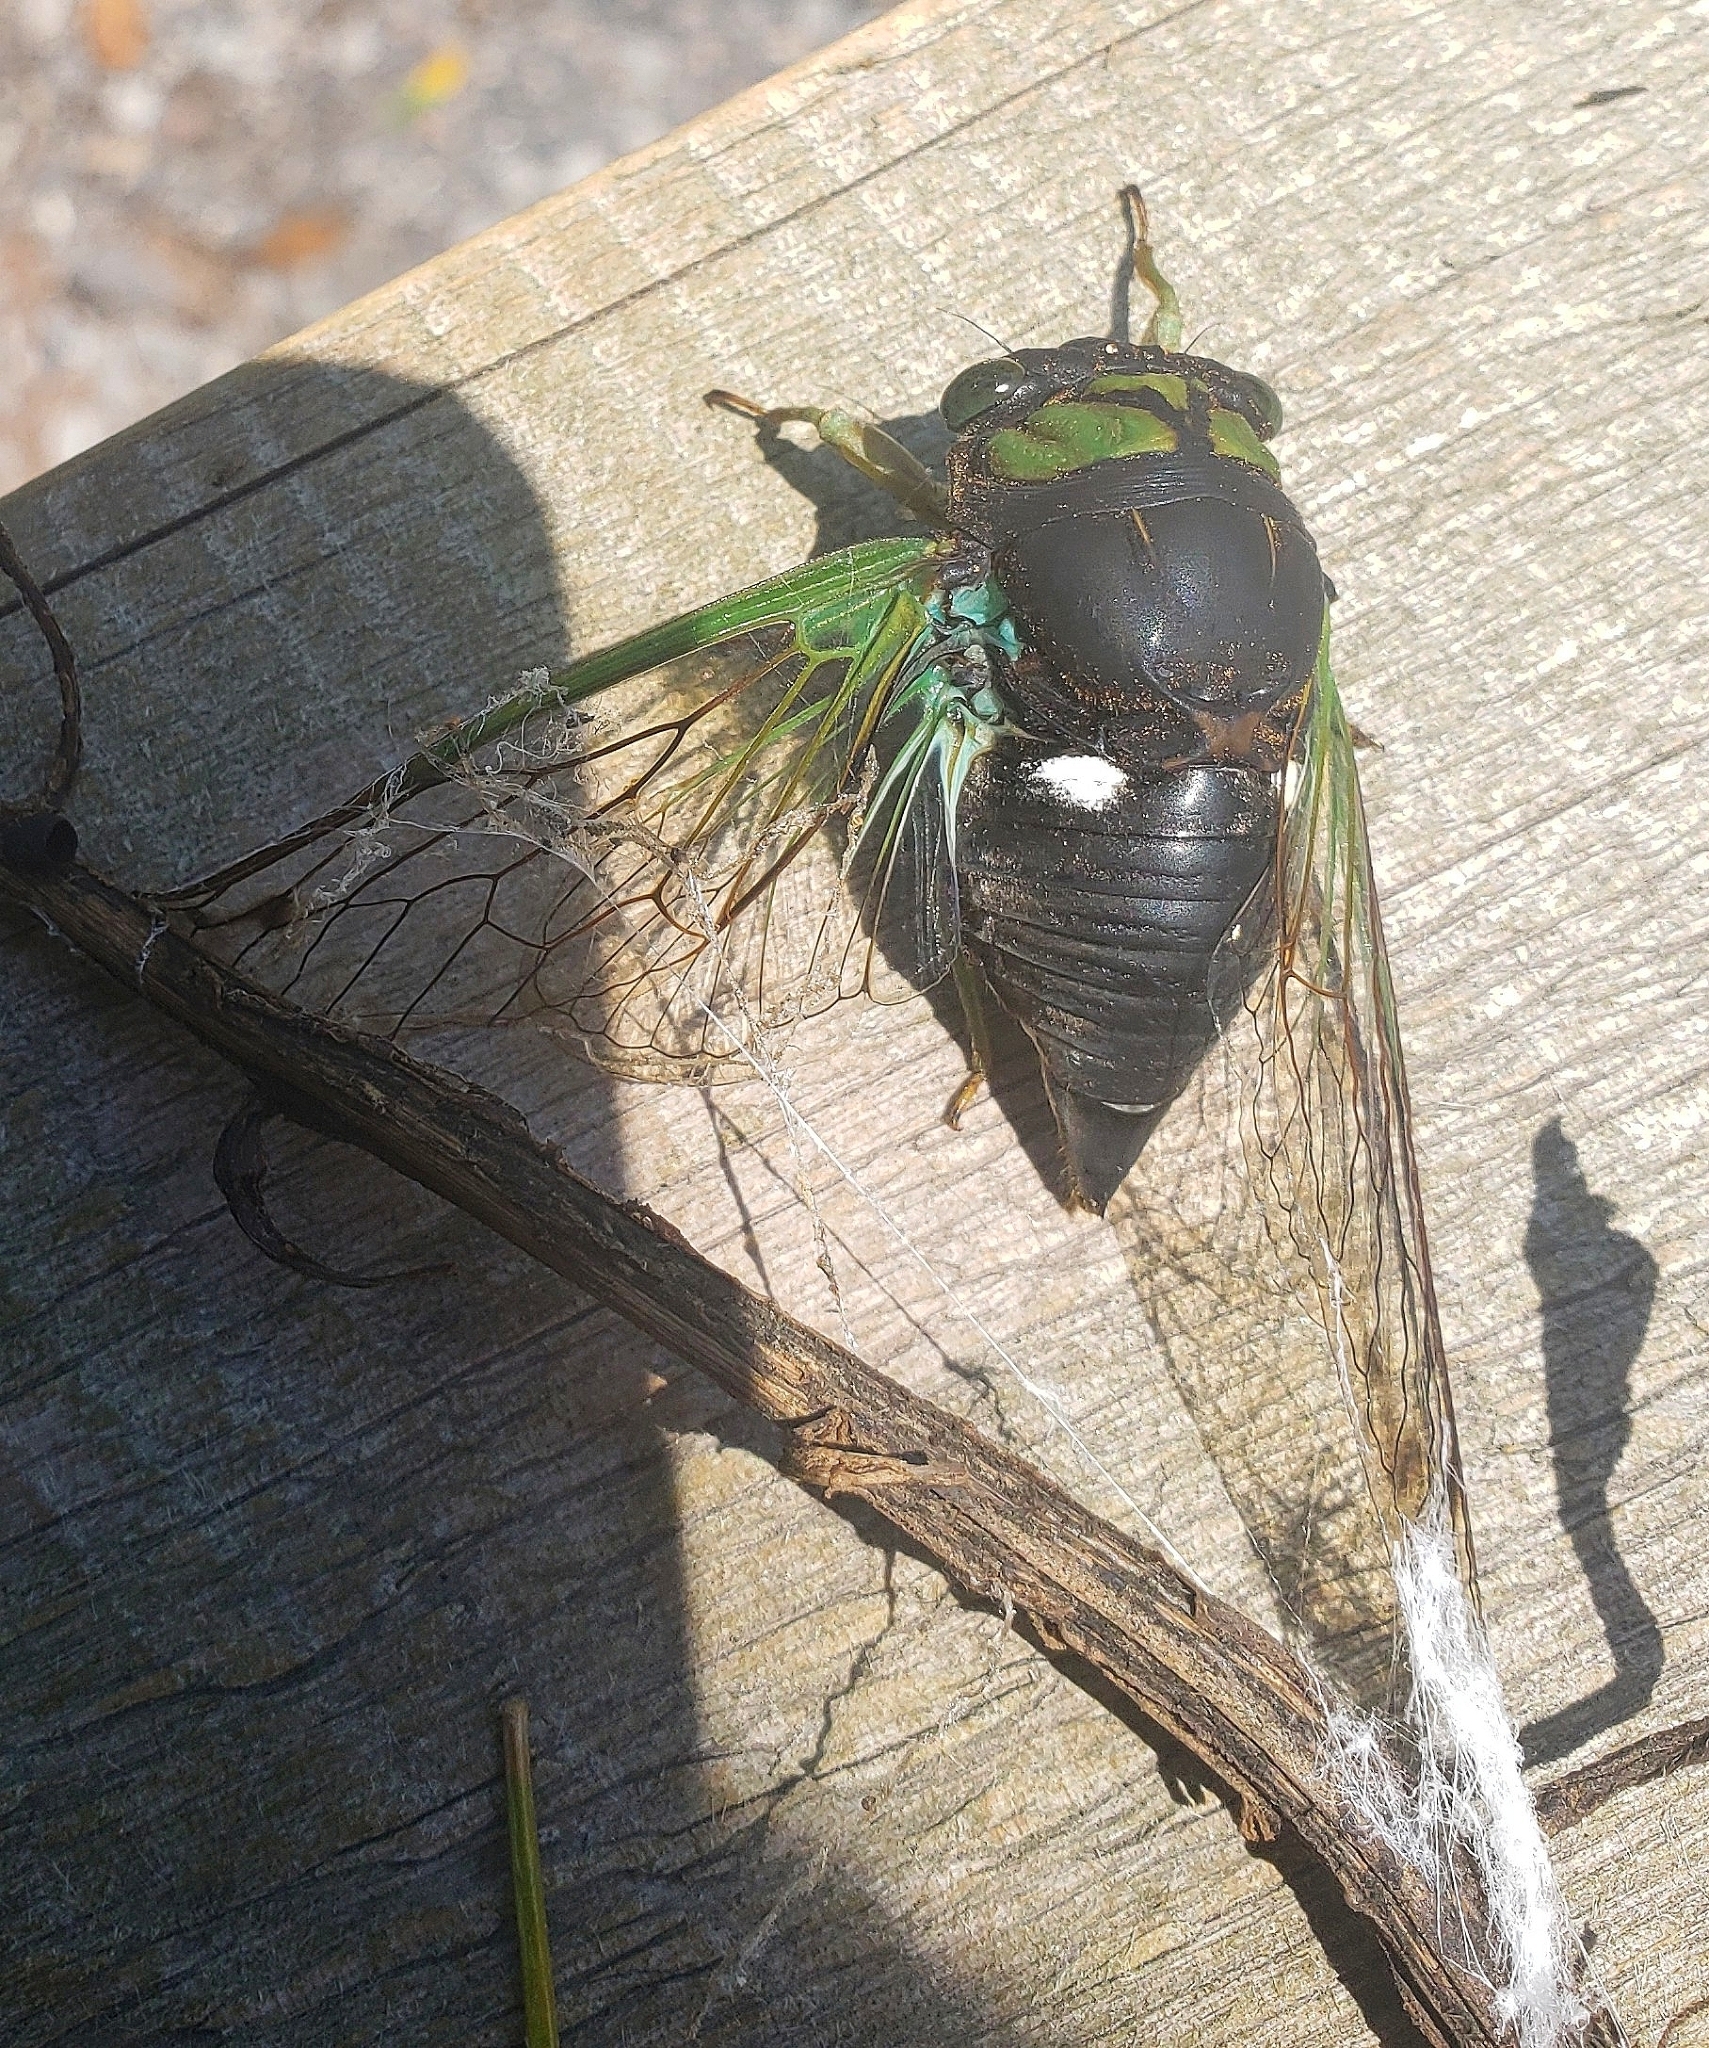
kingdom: Animalia
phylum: Arthropoda
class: Insecta
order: Hemiptera
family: Cicadidae
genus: Neotibicen
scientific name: Neotibicen tibicen
